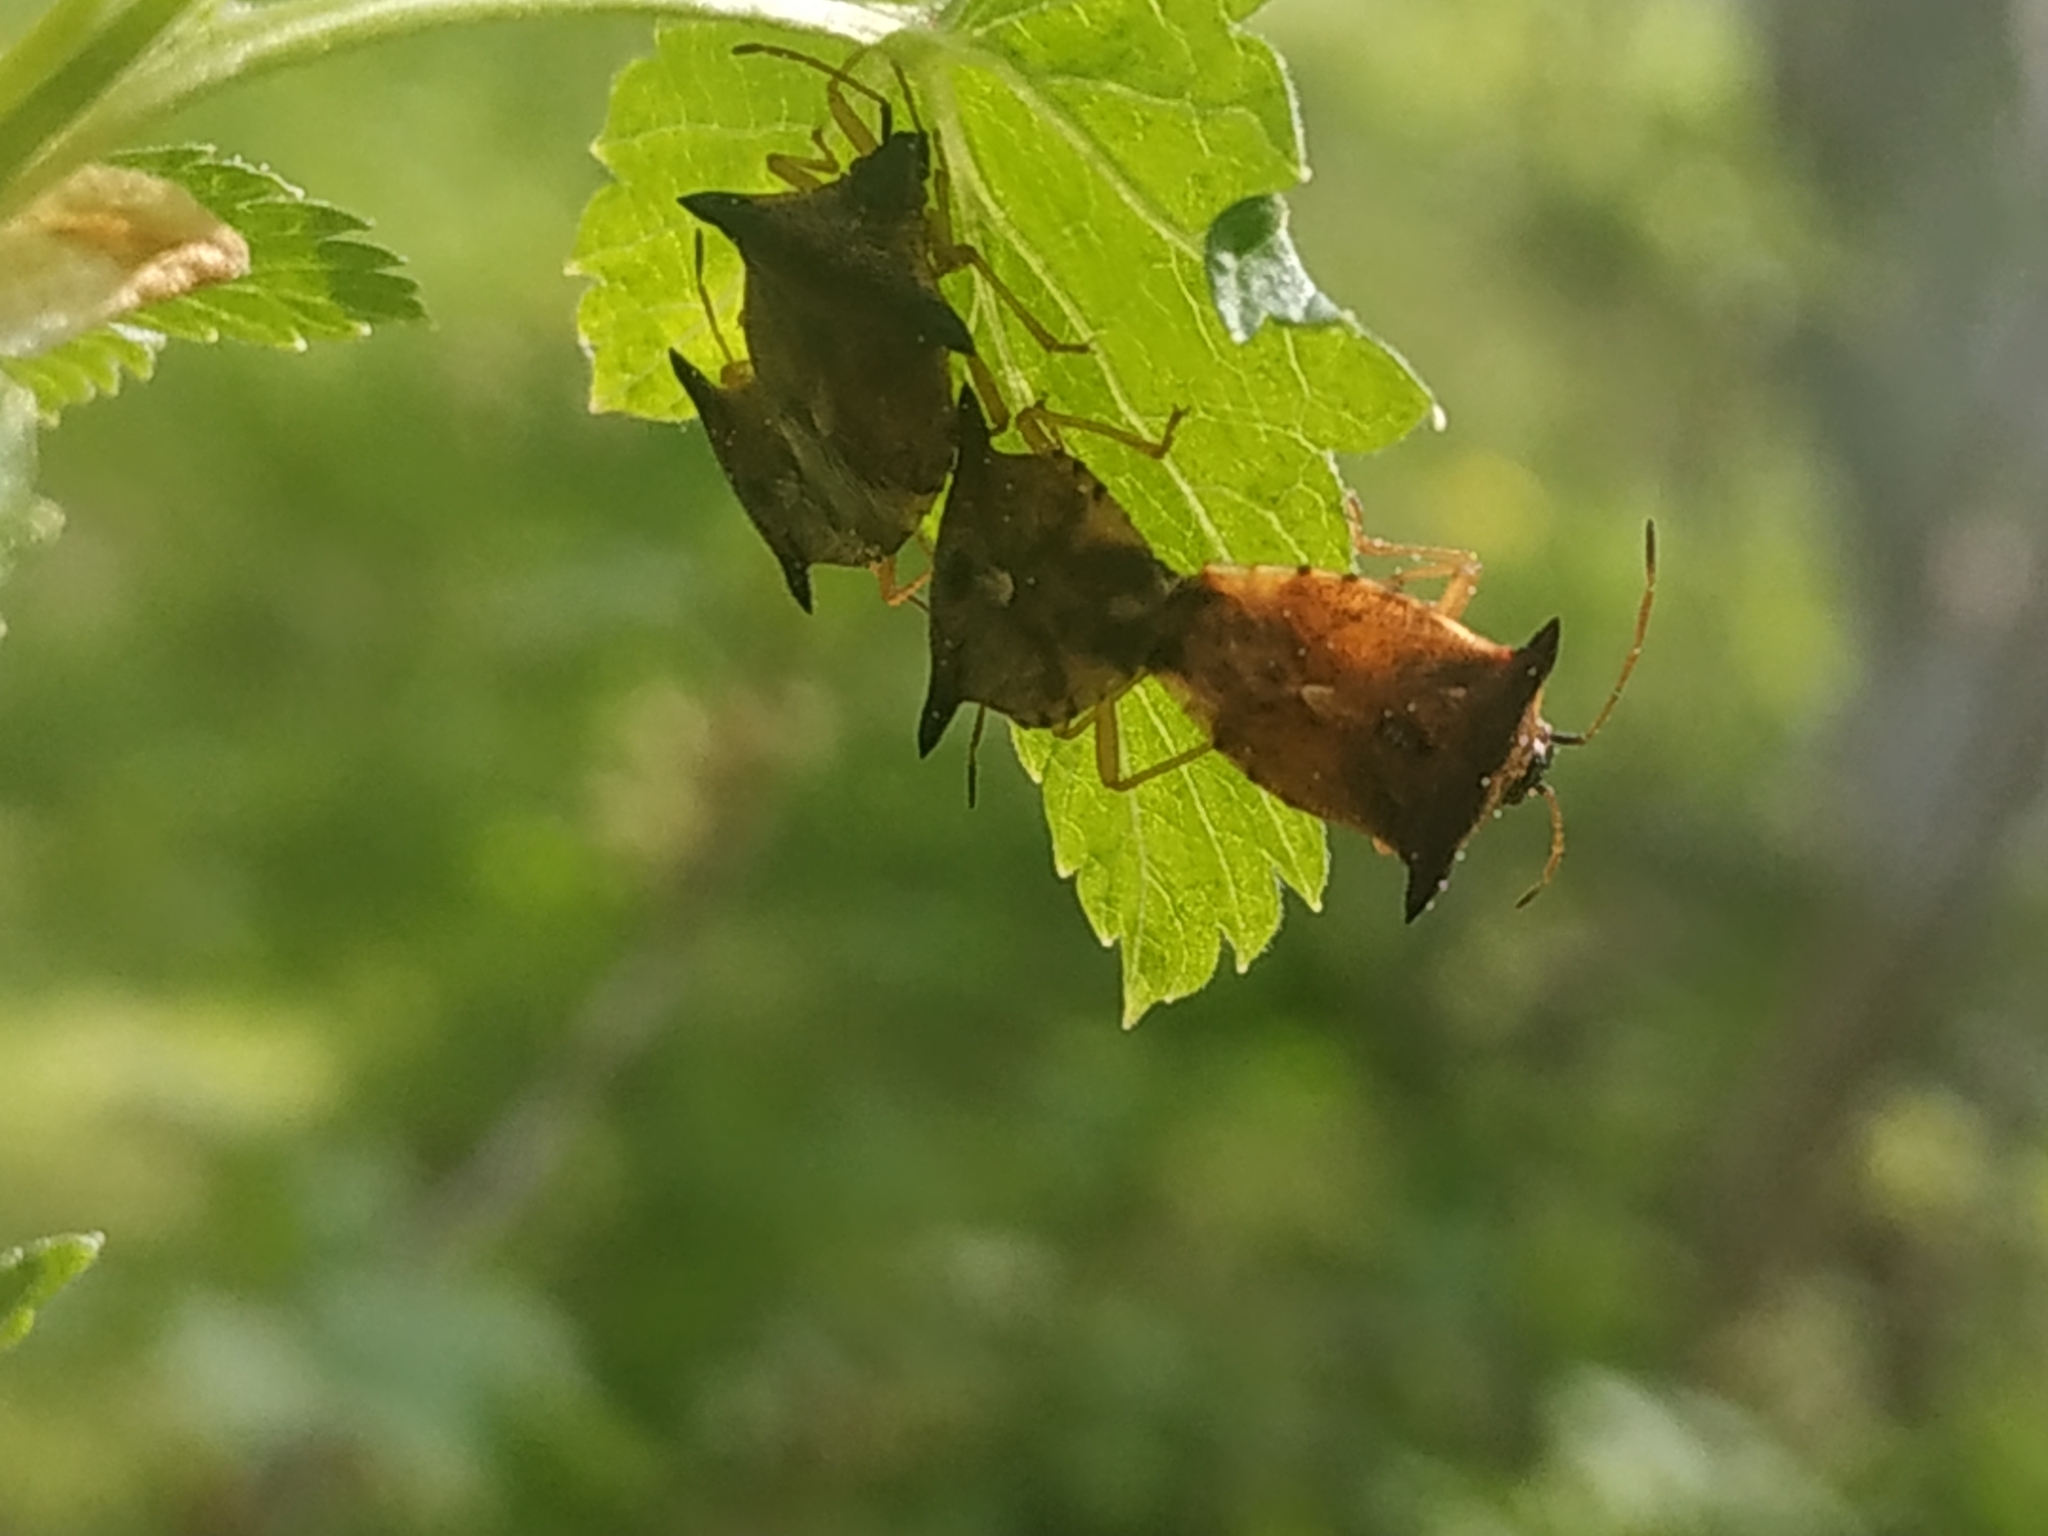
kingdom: Animalia
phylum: Arthropoda
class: Insecta
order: Hemiptera
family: Acanthosomatidae
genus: Elasmucha
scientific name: Elasmucha ferrugata
